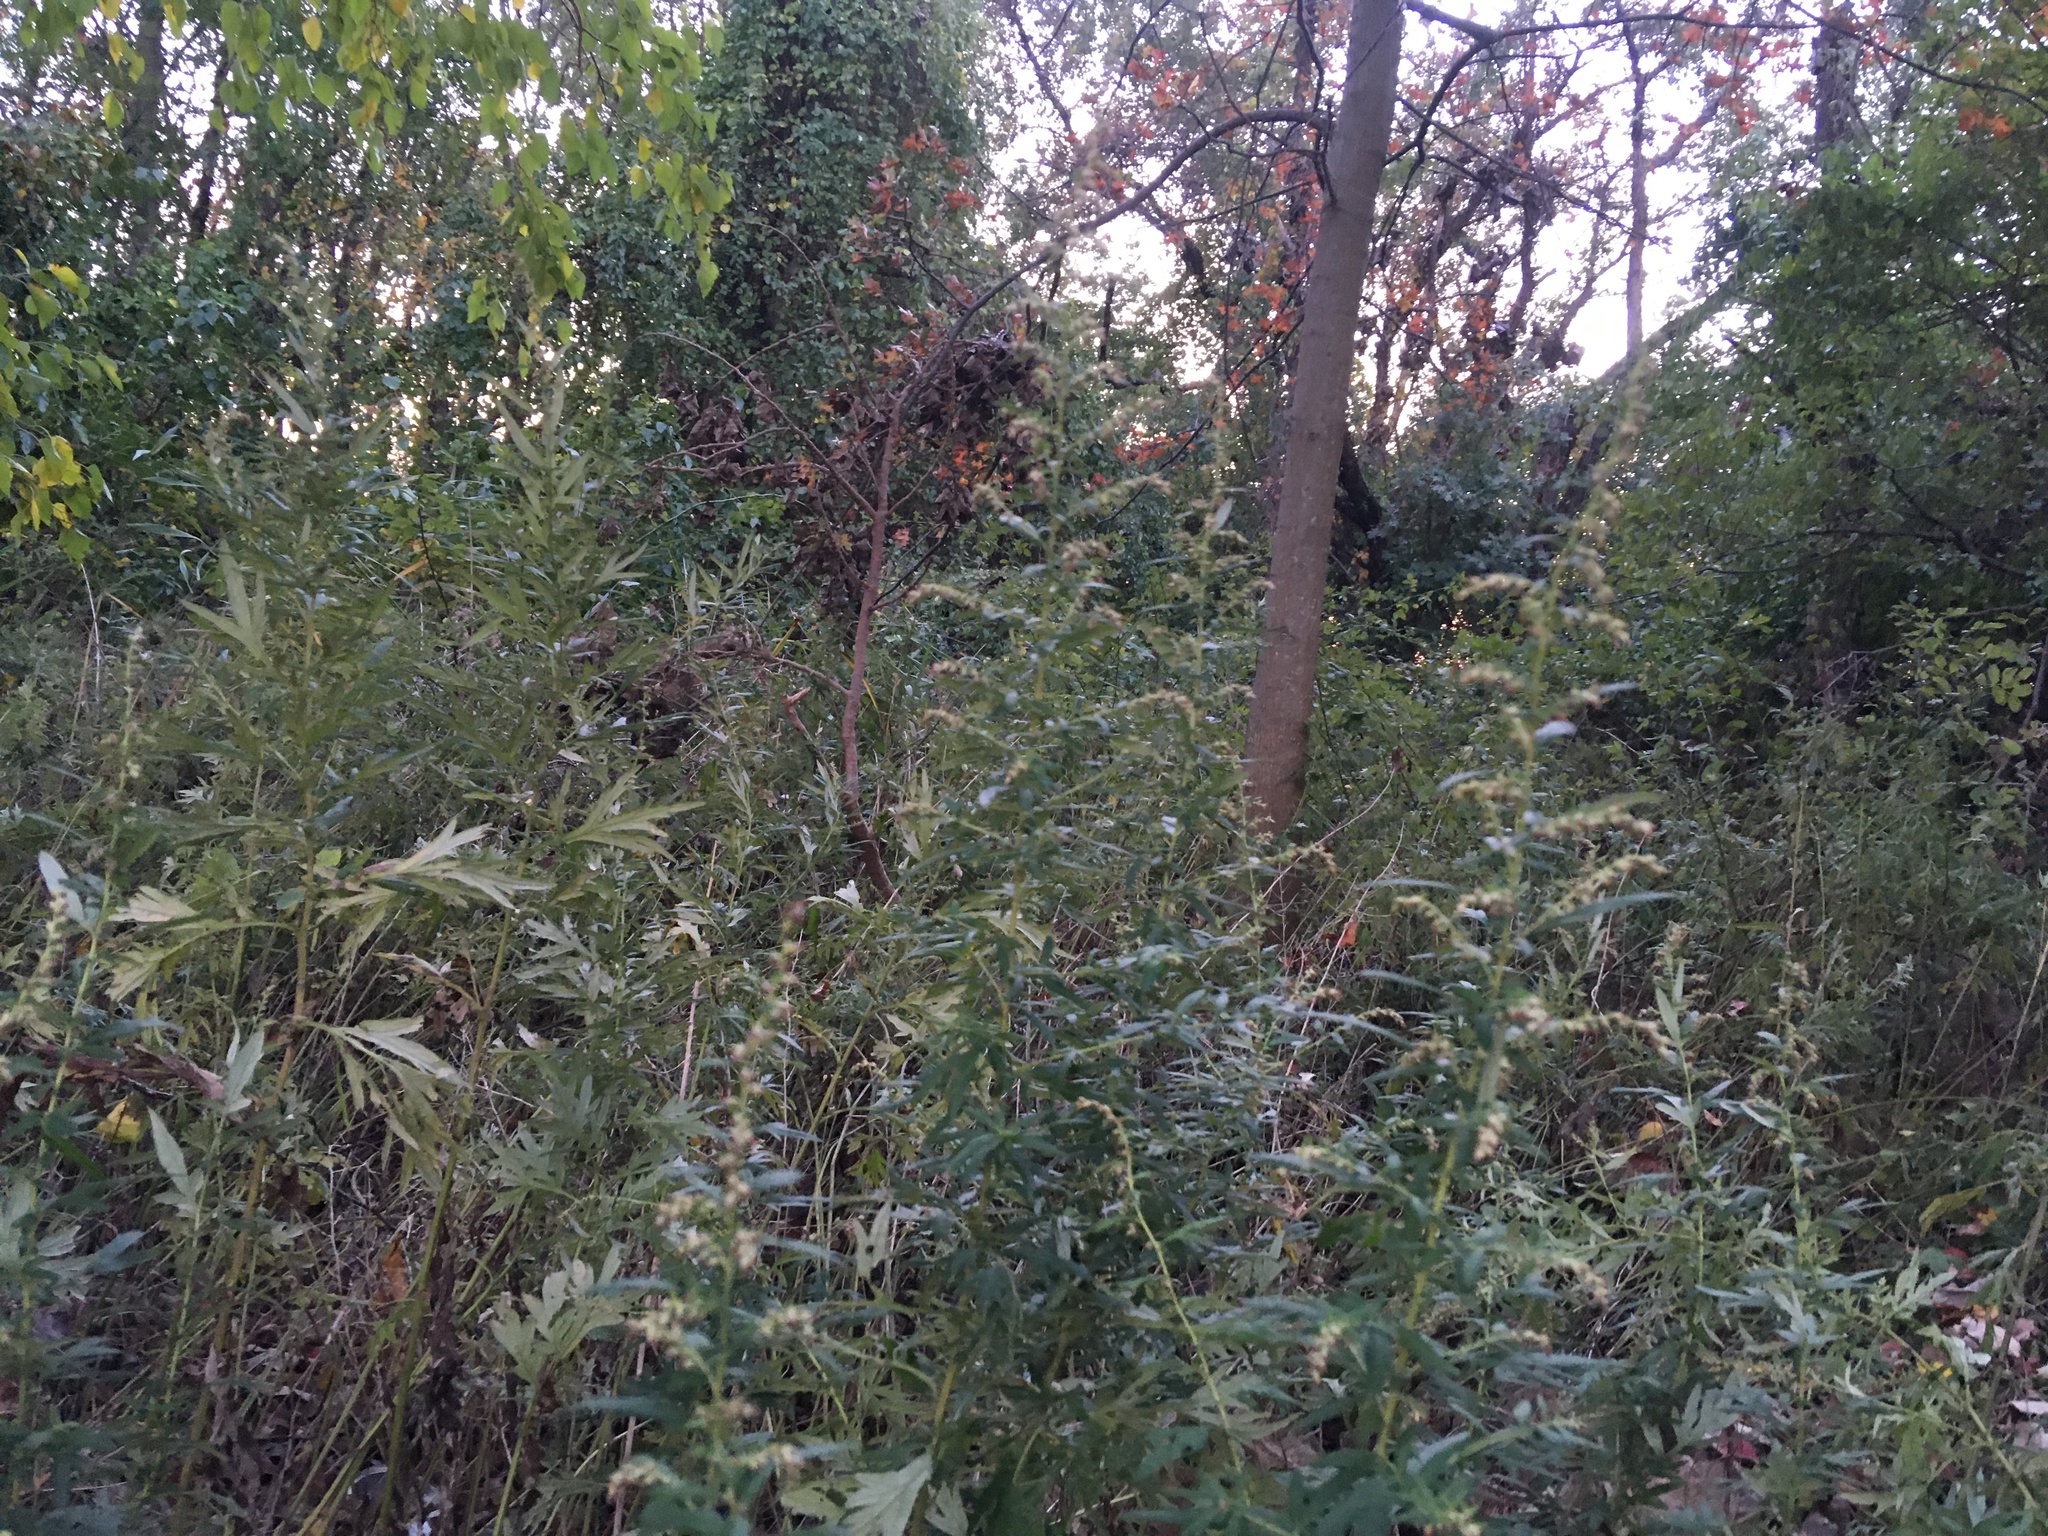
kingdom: Plantae
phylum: Tracheophyta
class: Magnoliopsida
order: Asterales
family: Asteraceae
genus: Artemisia
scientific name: Artemisia vulgaris
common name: Mugwort
